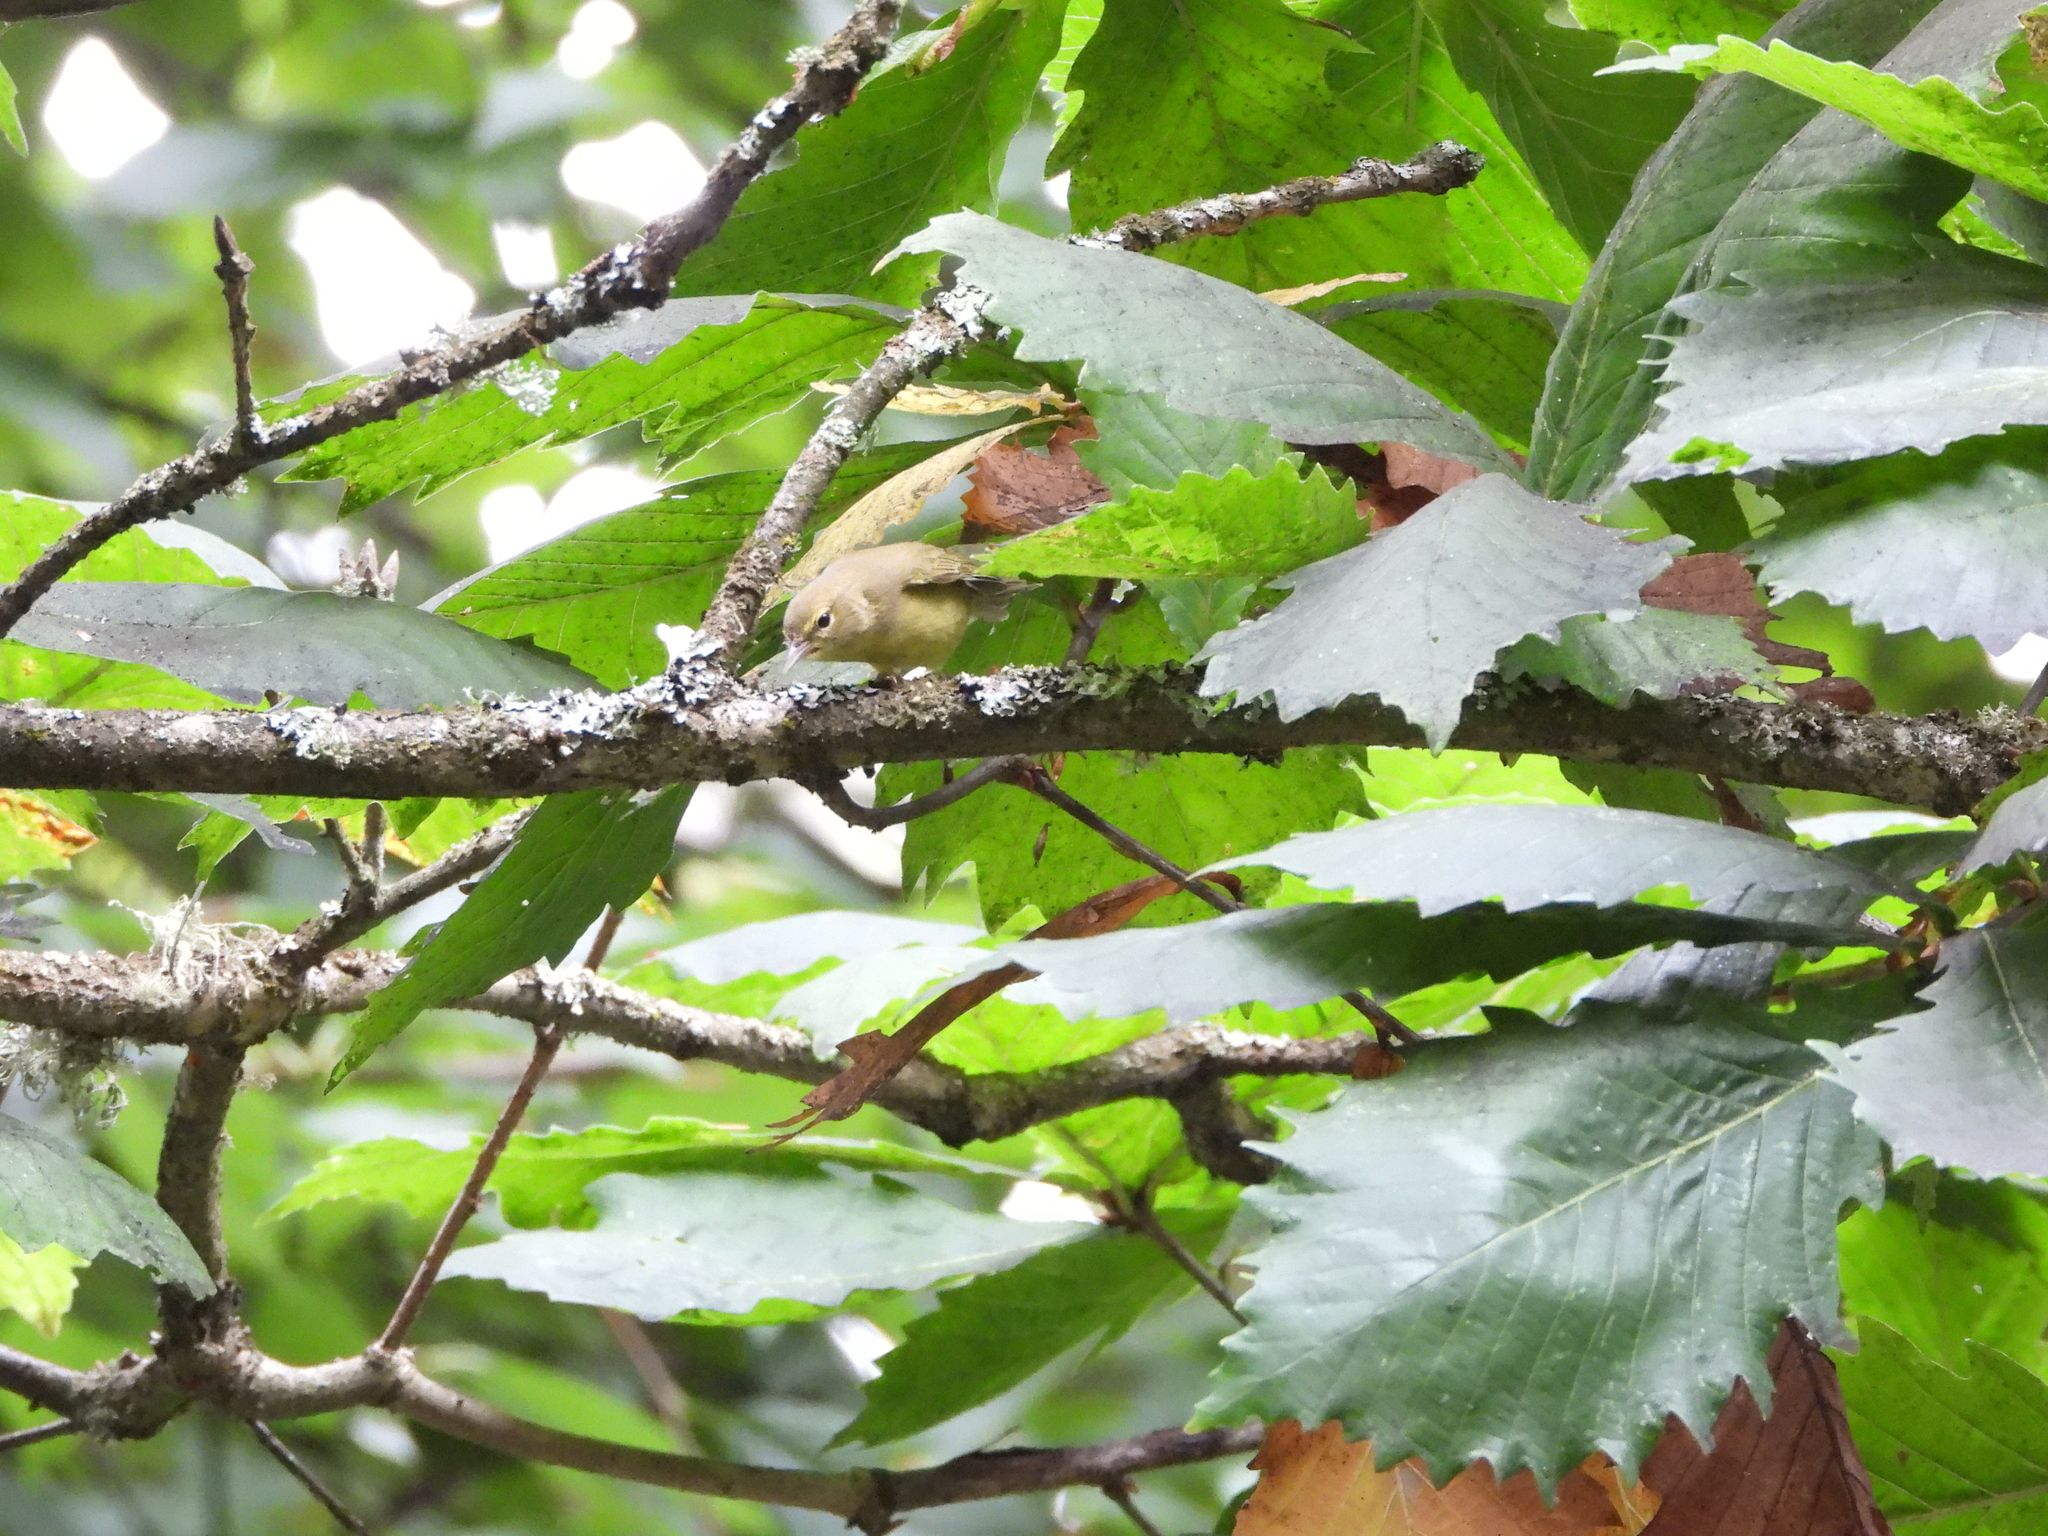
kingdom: Animalia
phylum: Chordata
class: Aves
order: Passeriformes
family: Parulidae
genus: Leiothlypis
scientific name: Leiothlypis celata
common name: Orange-crowned warbler
